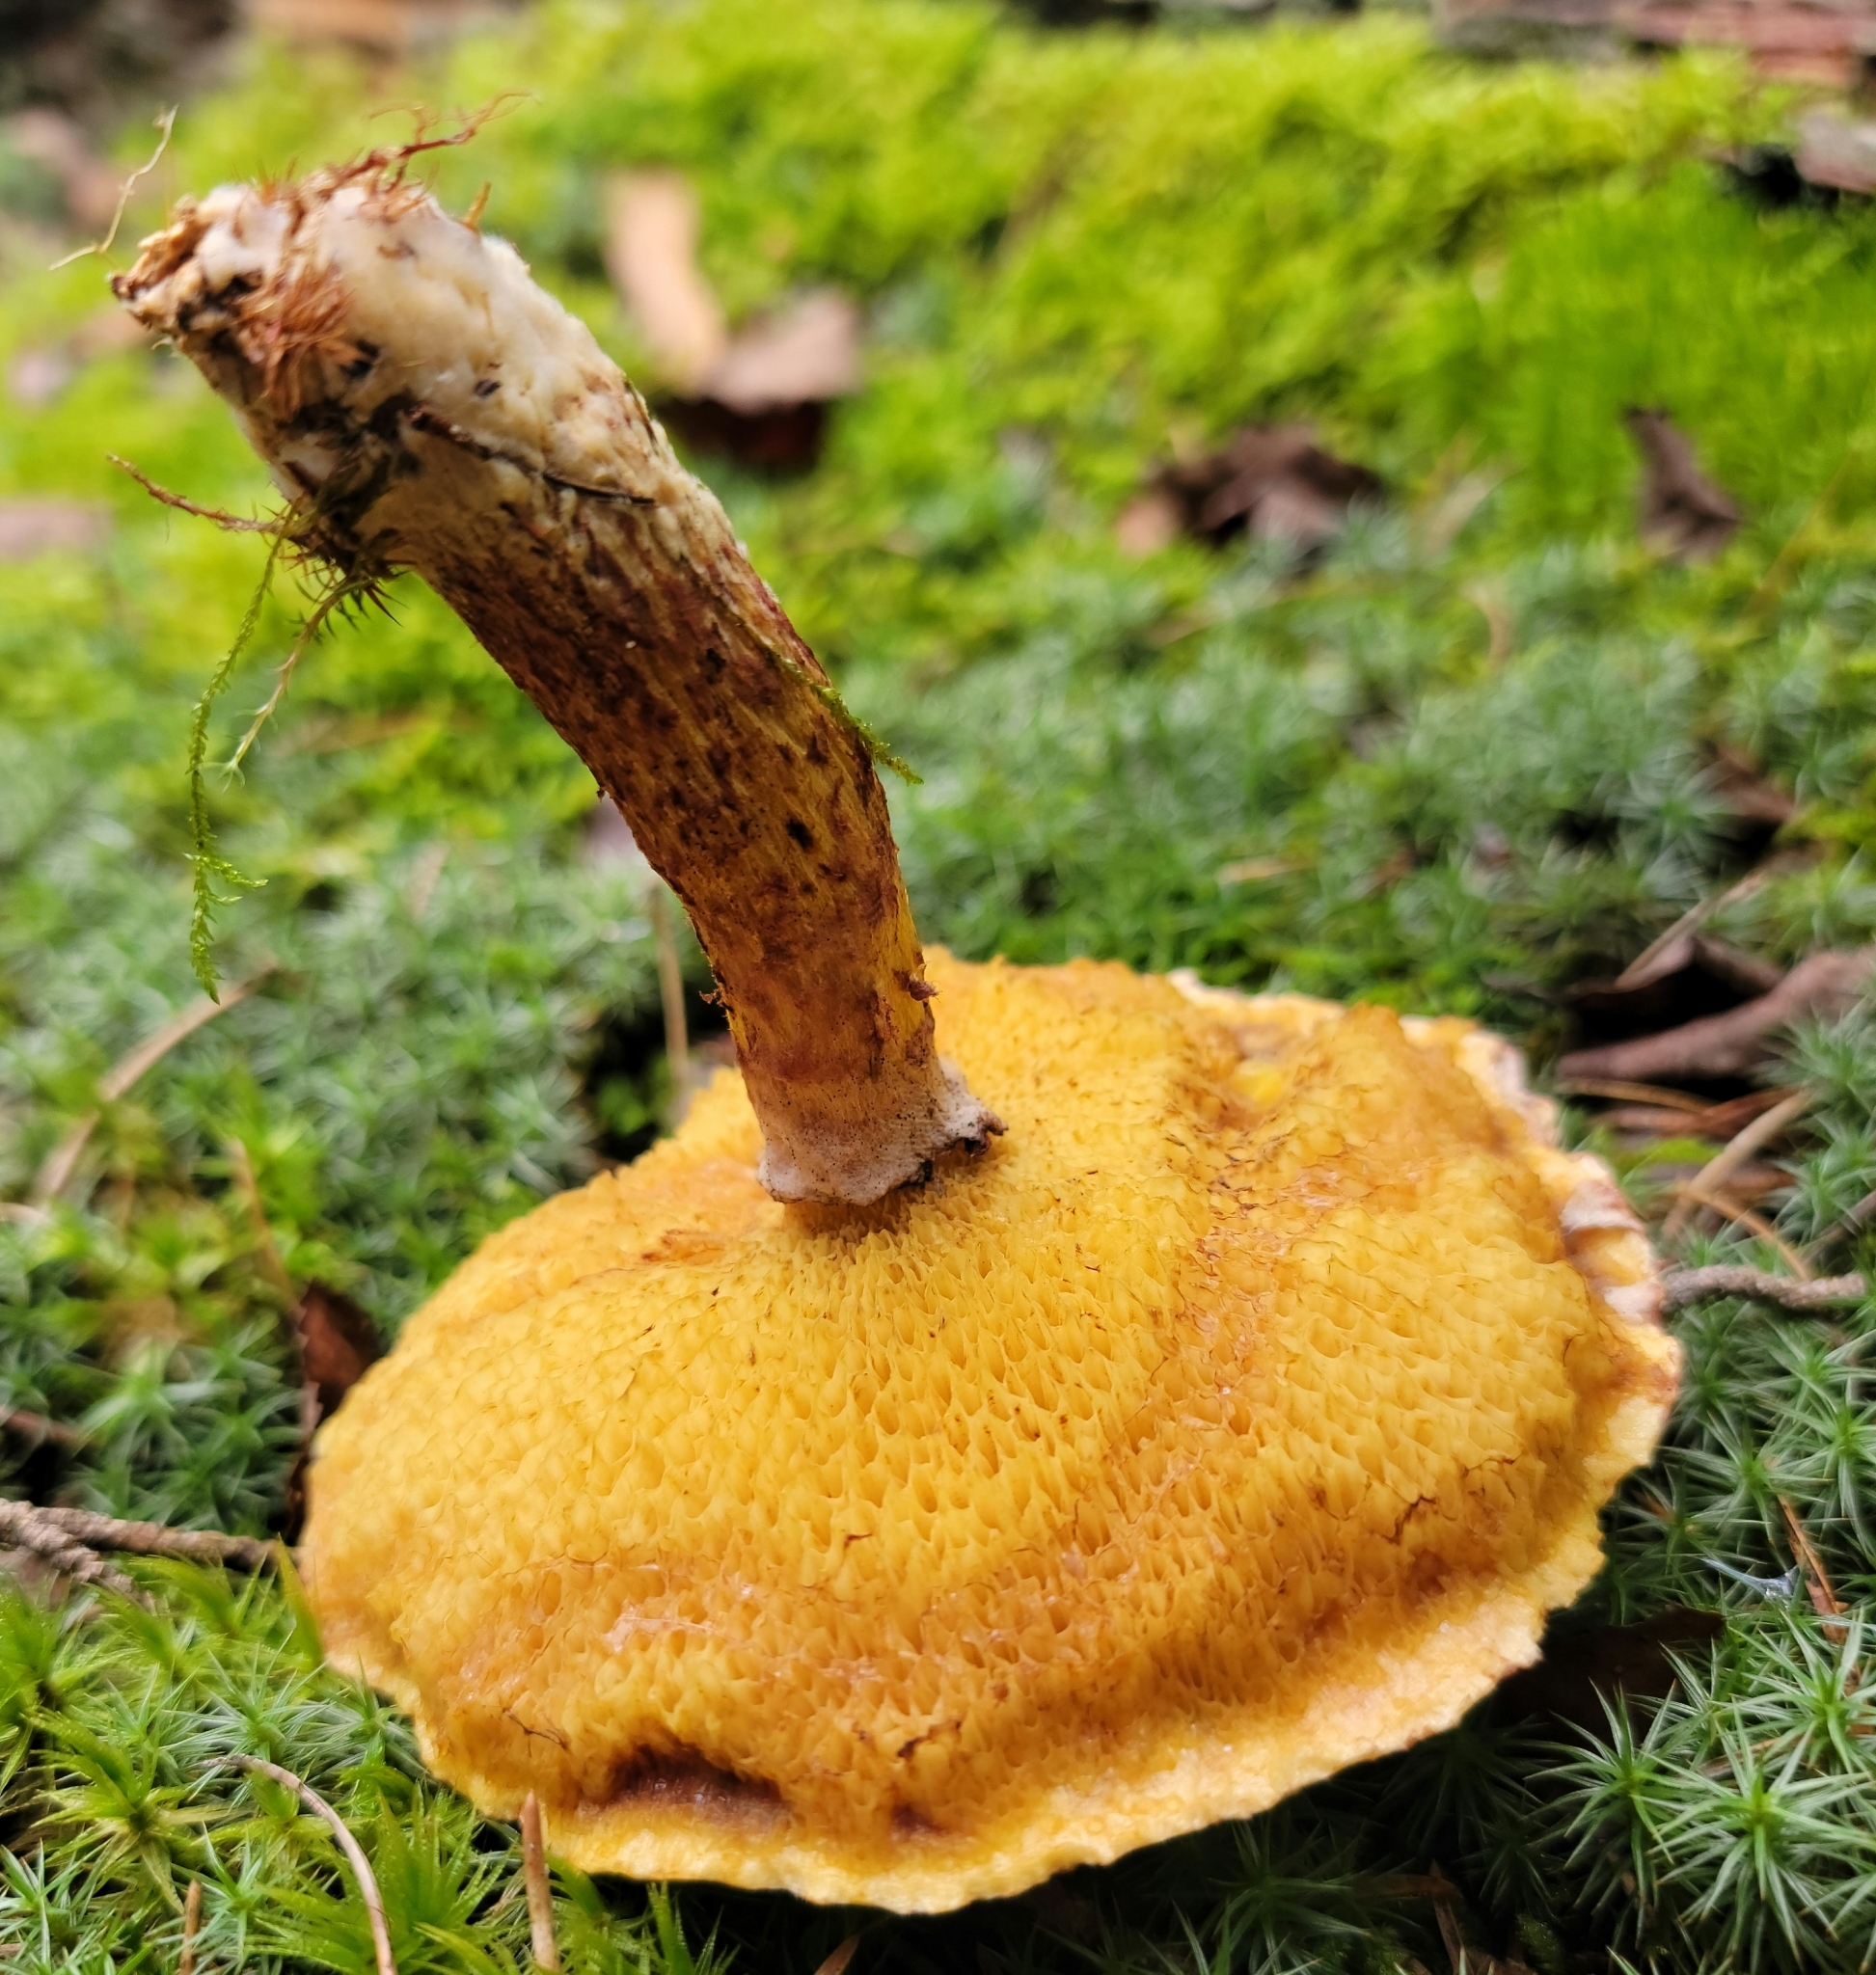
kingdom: Fungi
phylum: Basidiomycota
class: Agaricomycetes
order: Boletales
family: Suillaceae
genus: Suillus
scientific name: Suillus spraguei
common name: Painted suillus
